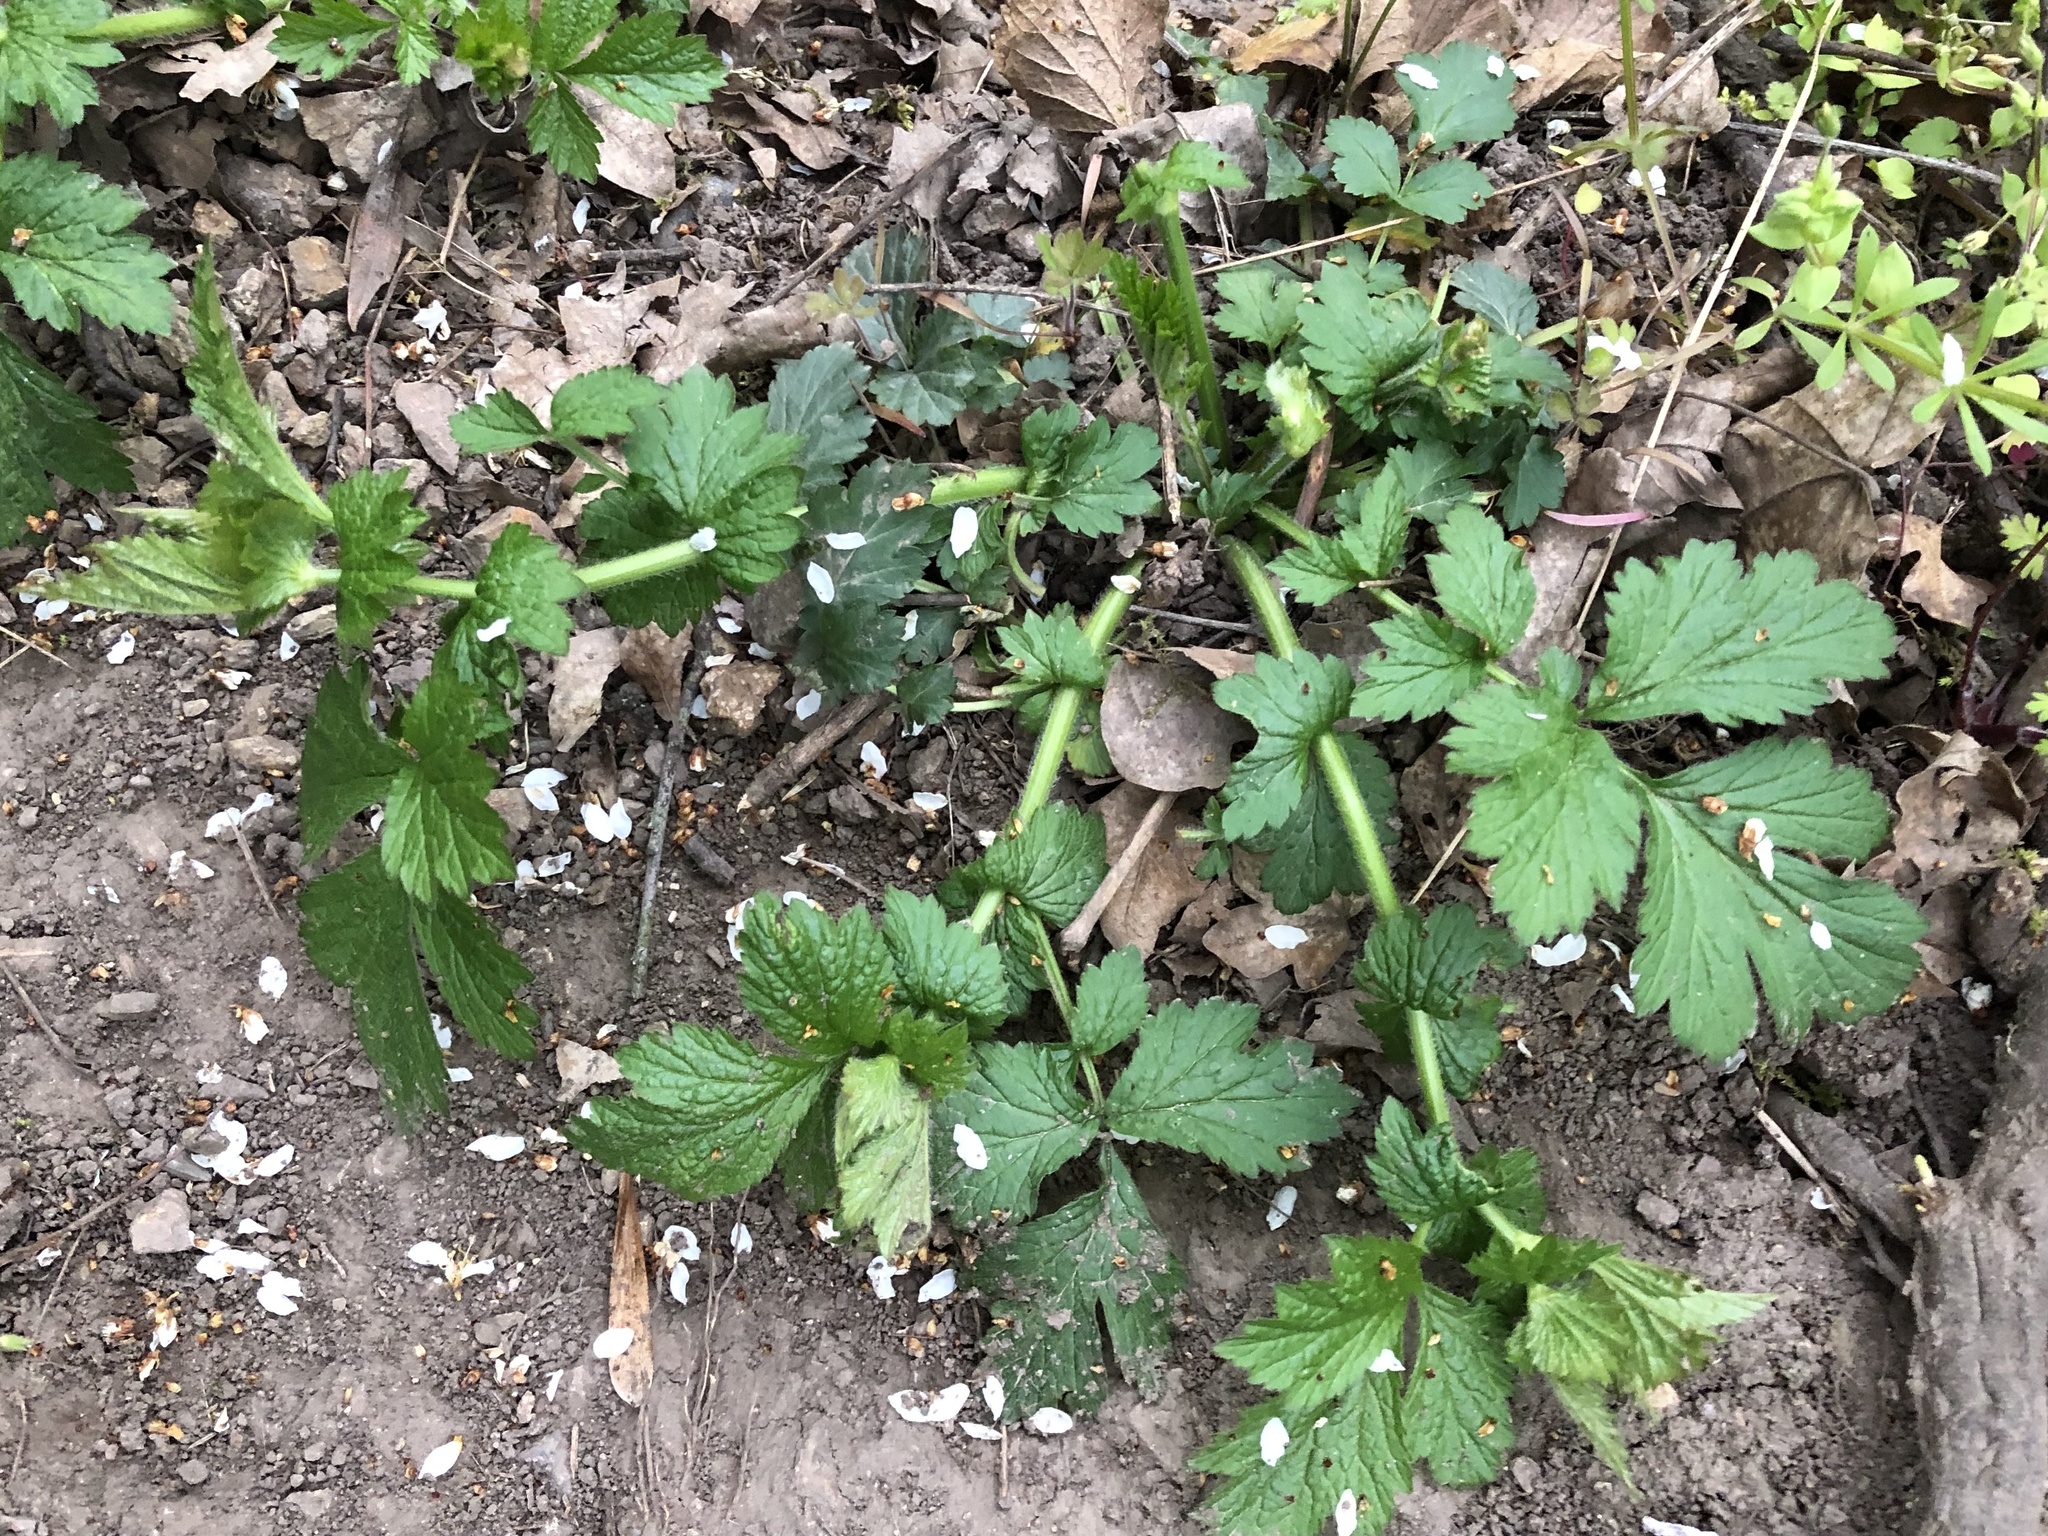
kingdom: Plantae
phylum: Tracheophyta
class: Magnoliopsida
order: Rosales
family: Rosaceae
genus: Geum
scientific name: Geum urbanum
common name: Wood avens
